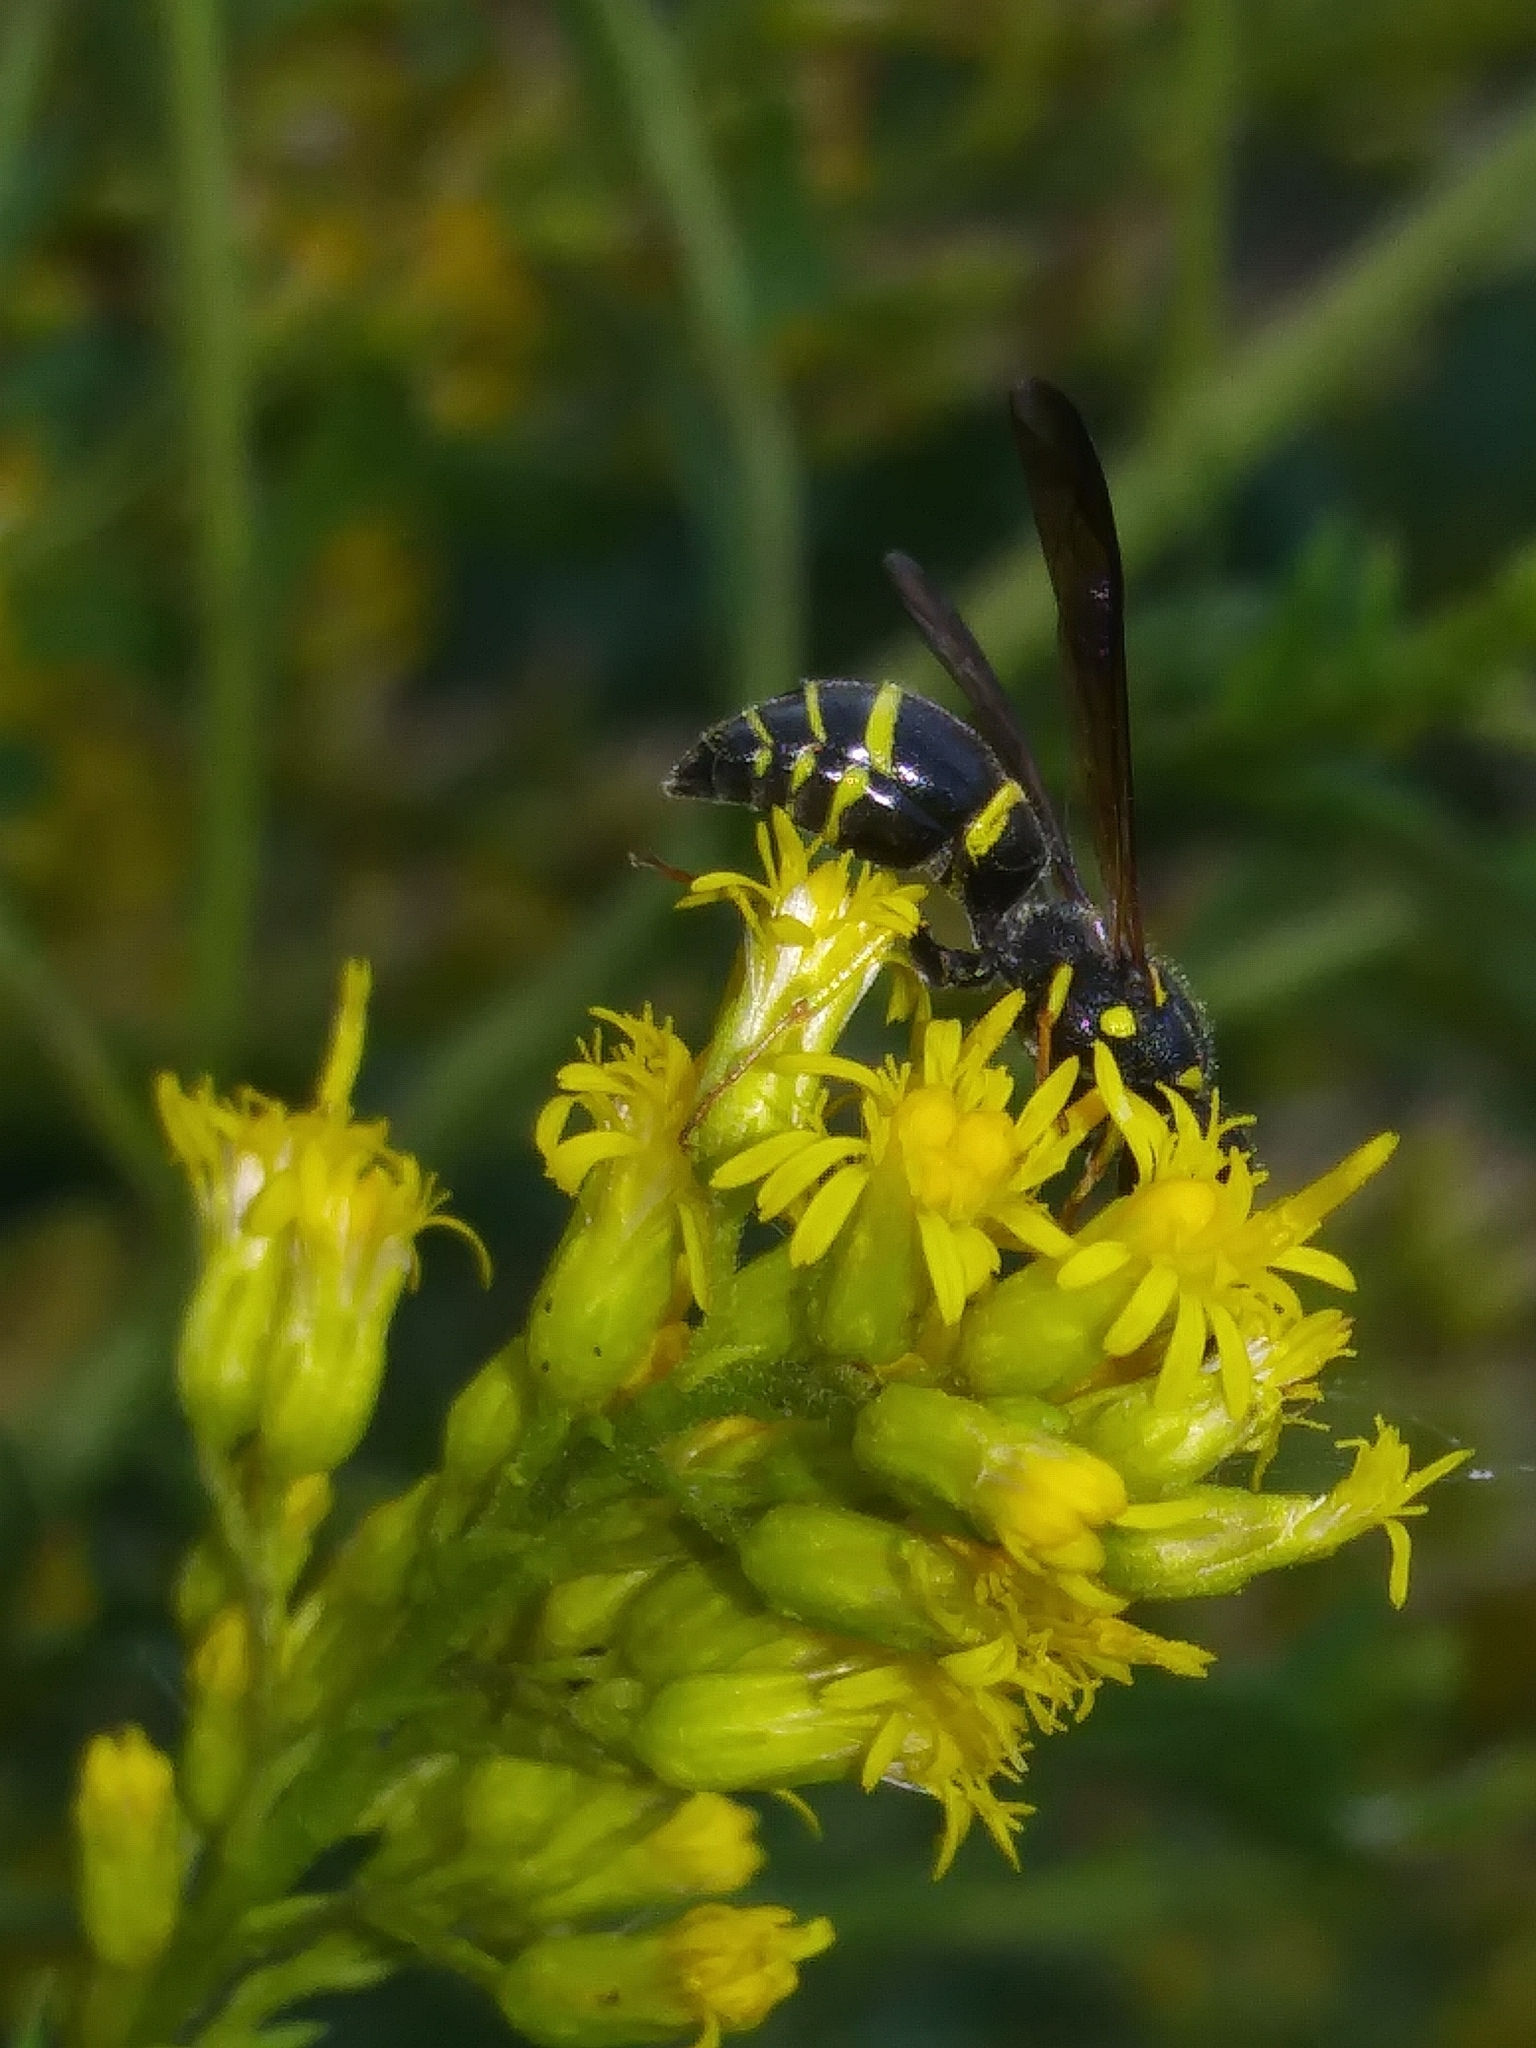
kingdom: Animalia
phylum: Arthropoda
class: Insecta
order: Hymenoptera
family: Vespidae
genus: Ancistrocerus
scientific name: Ancistrocerus adiabatus
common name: Bramble mason wasp
